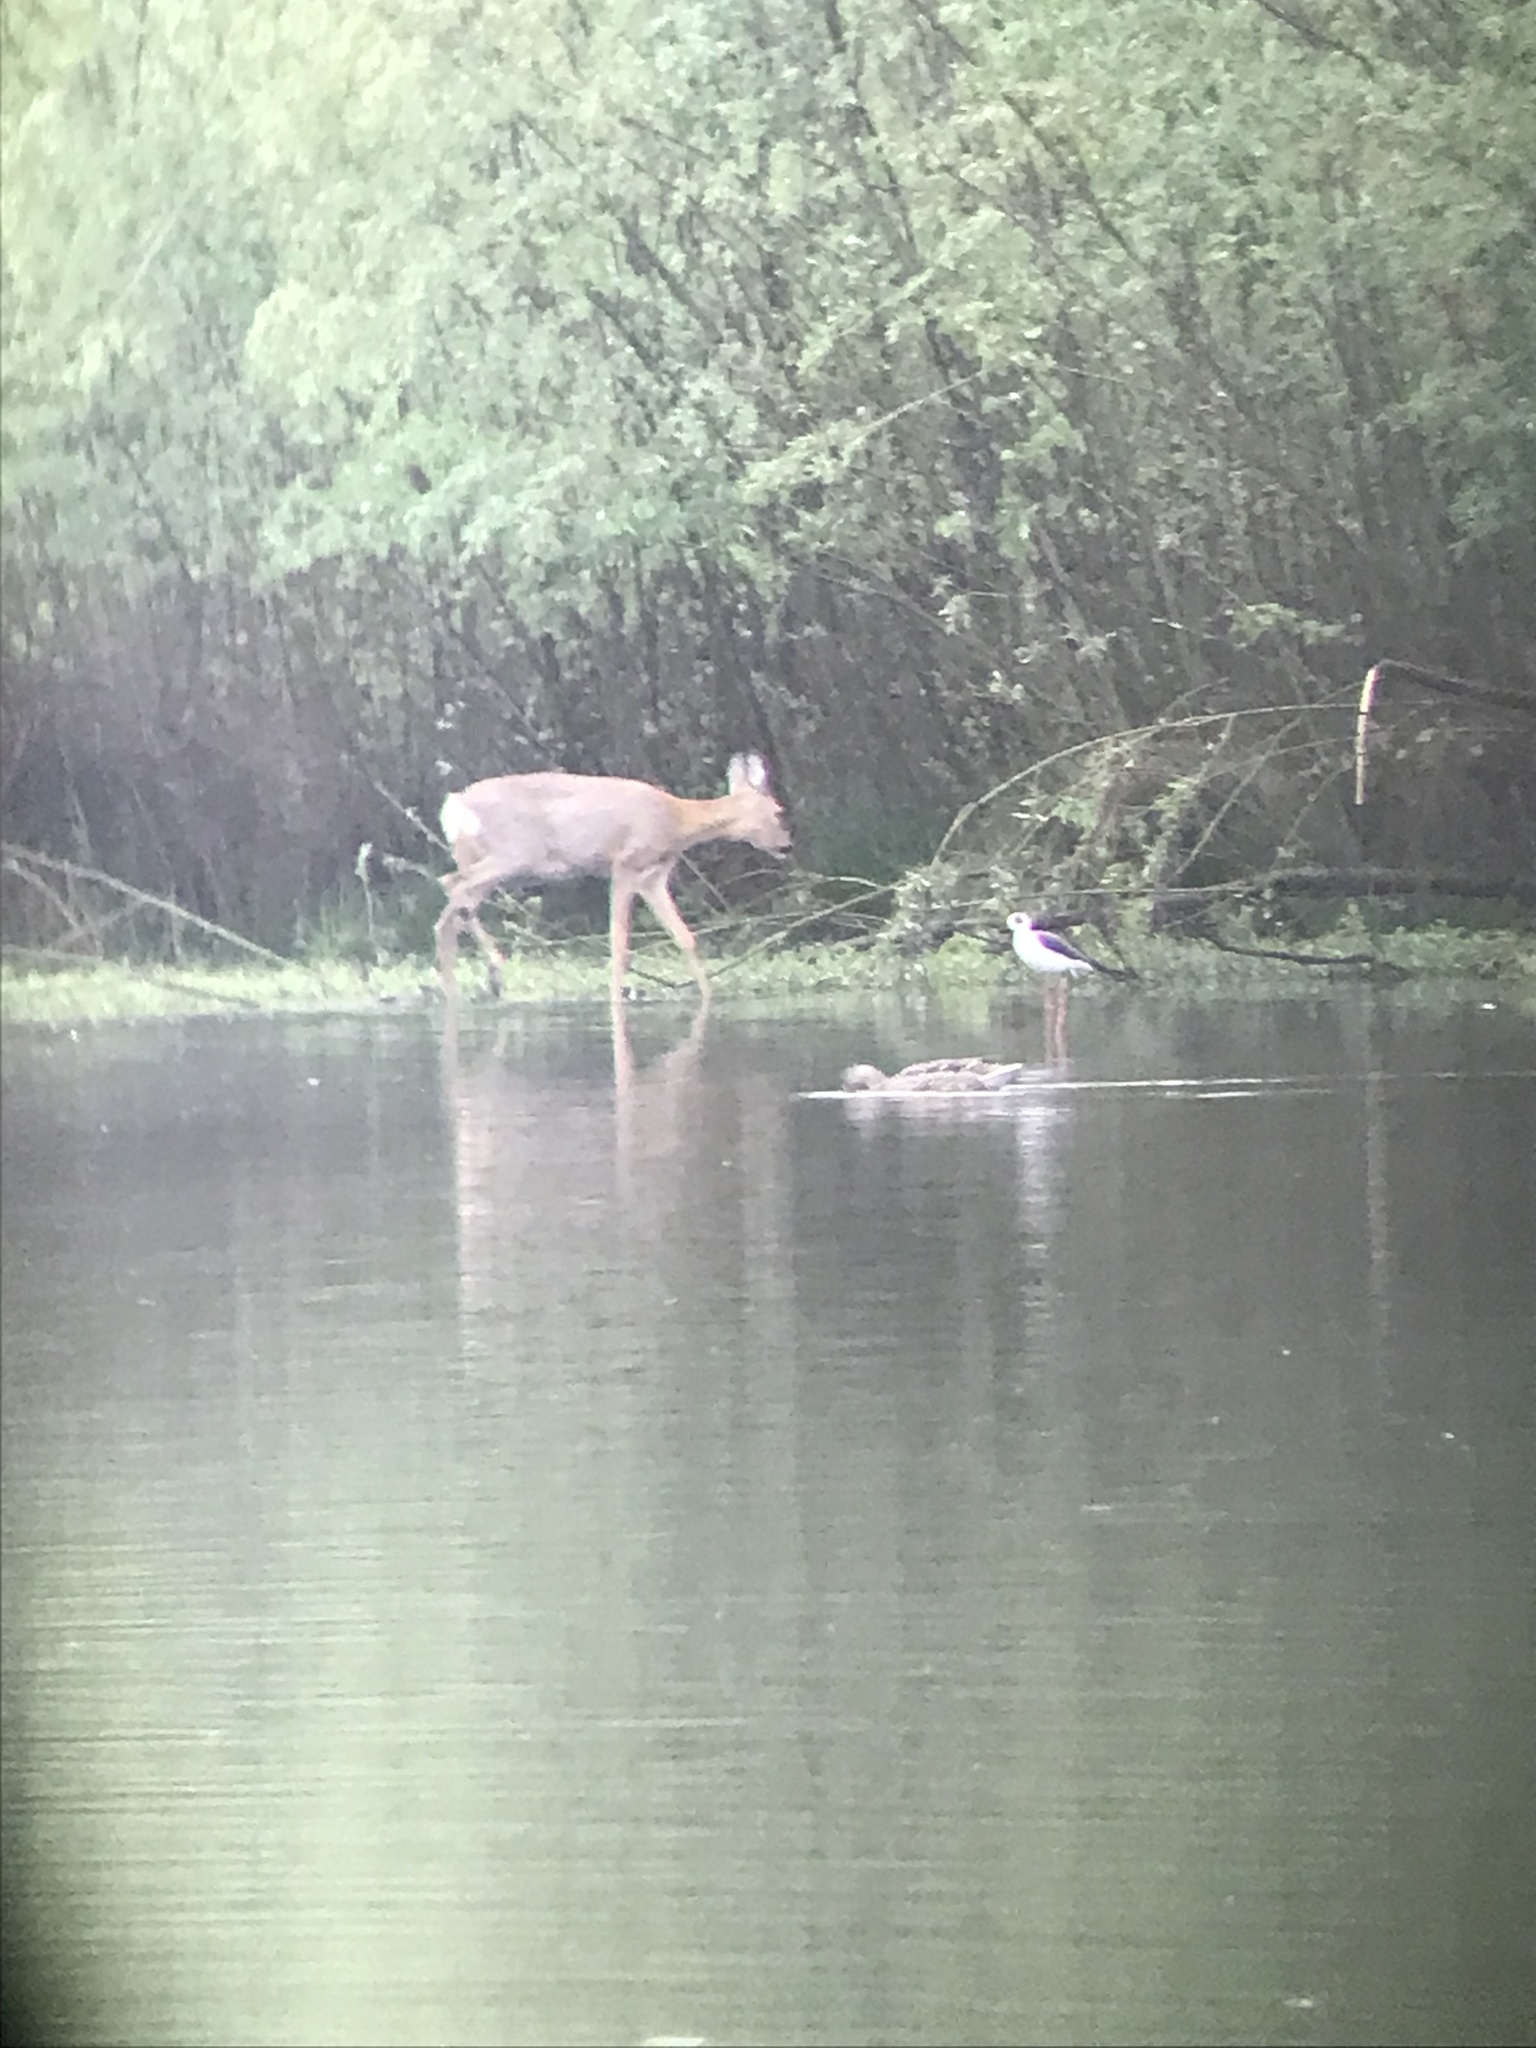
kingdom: Animalia
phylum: Chordata
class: Aves
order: Charadriiformes
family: Recurvirostridae
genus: Himantopus
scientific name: Himantopus himantopus
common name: Black-winged stilt
